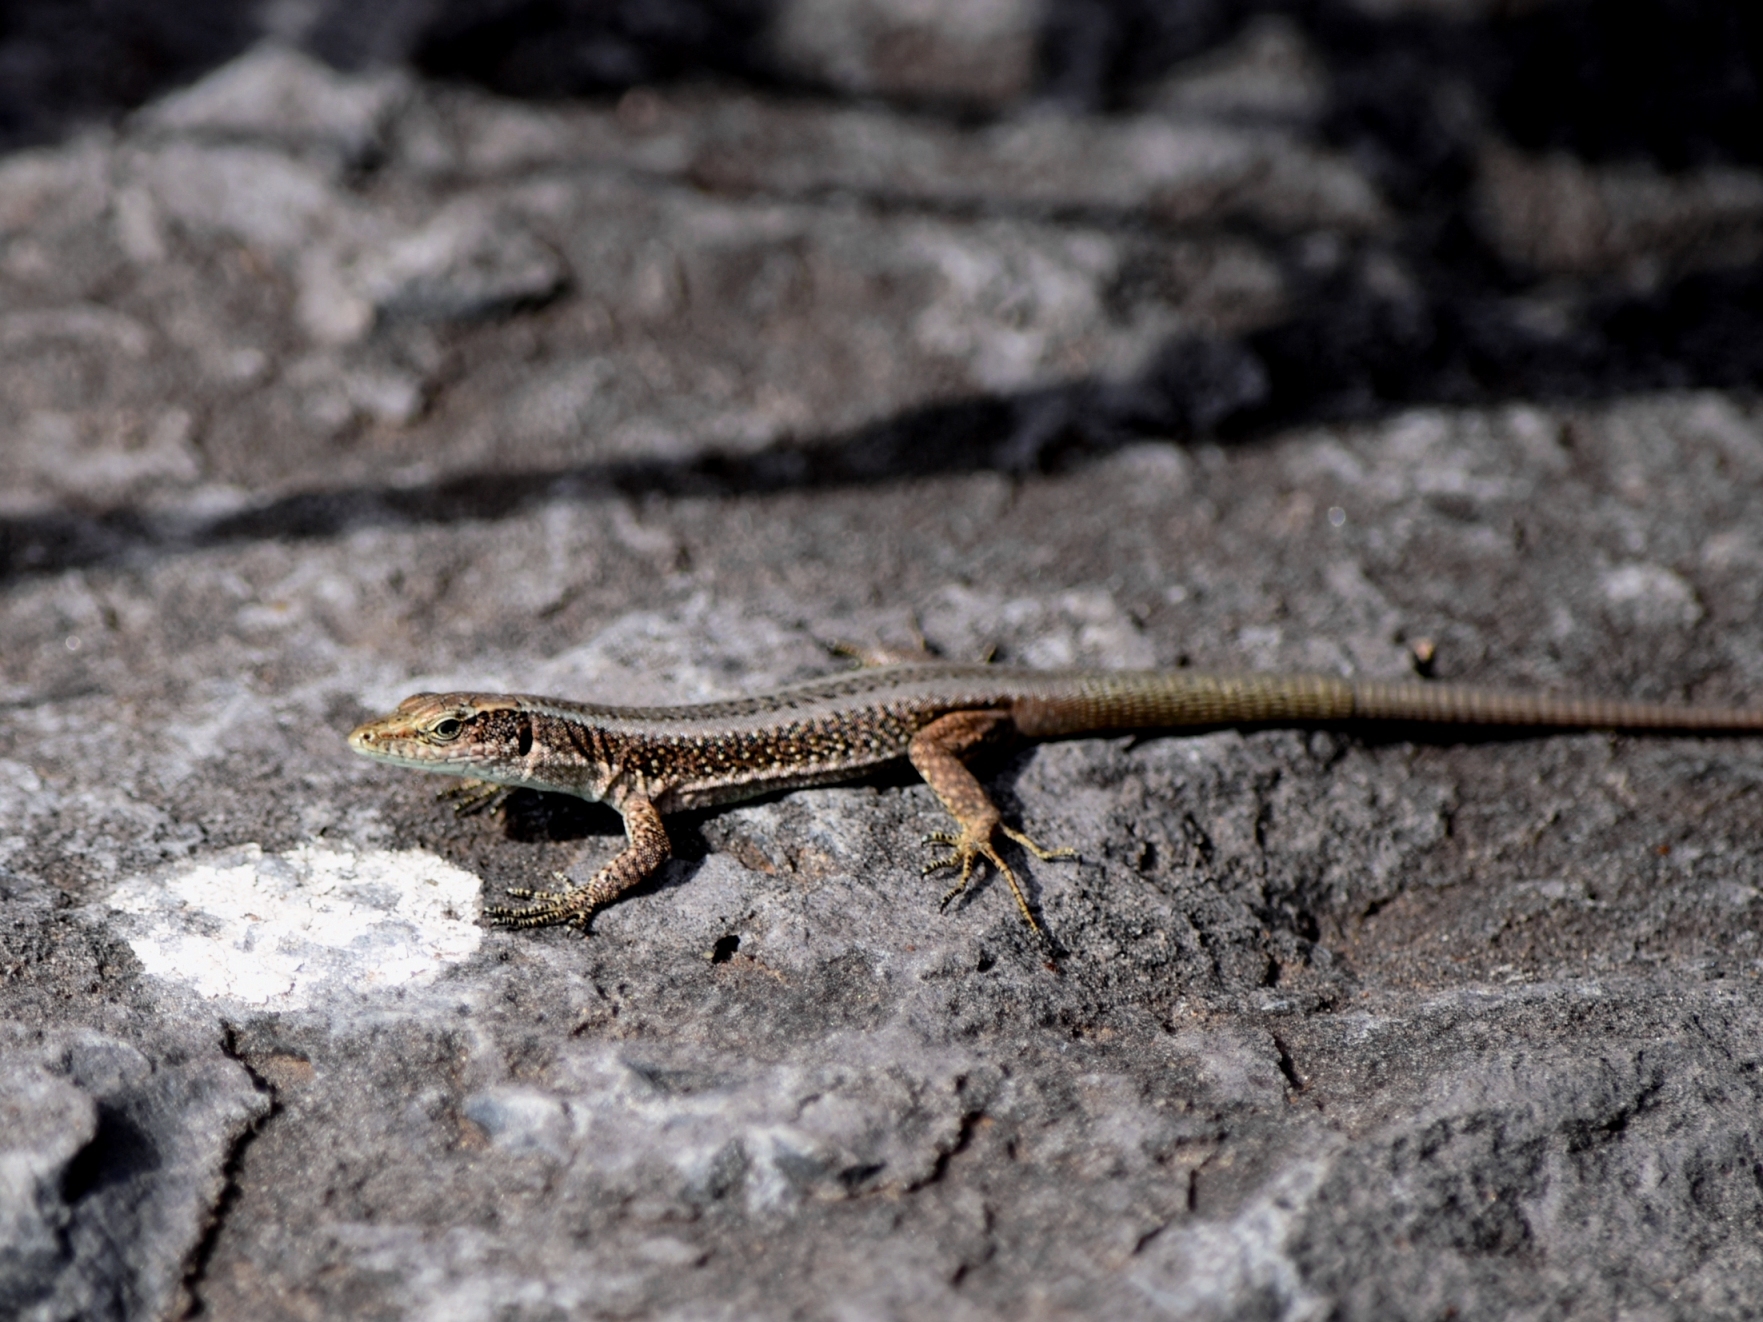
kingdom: Animalia
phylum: Chordata
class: Squamata
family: Lacertidae
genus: Teira
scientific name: Teira dugesii
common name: Madeira lizard
